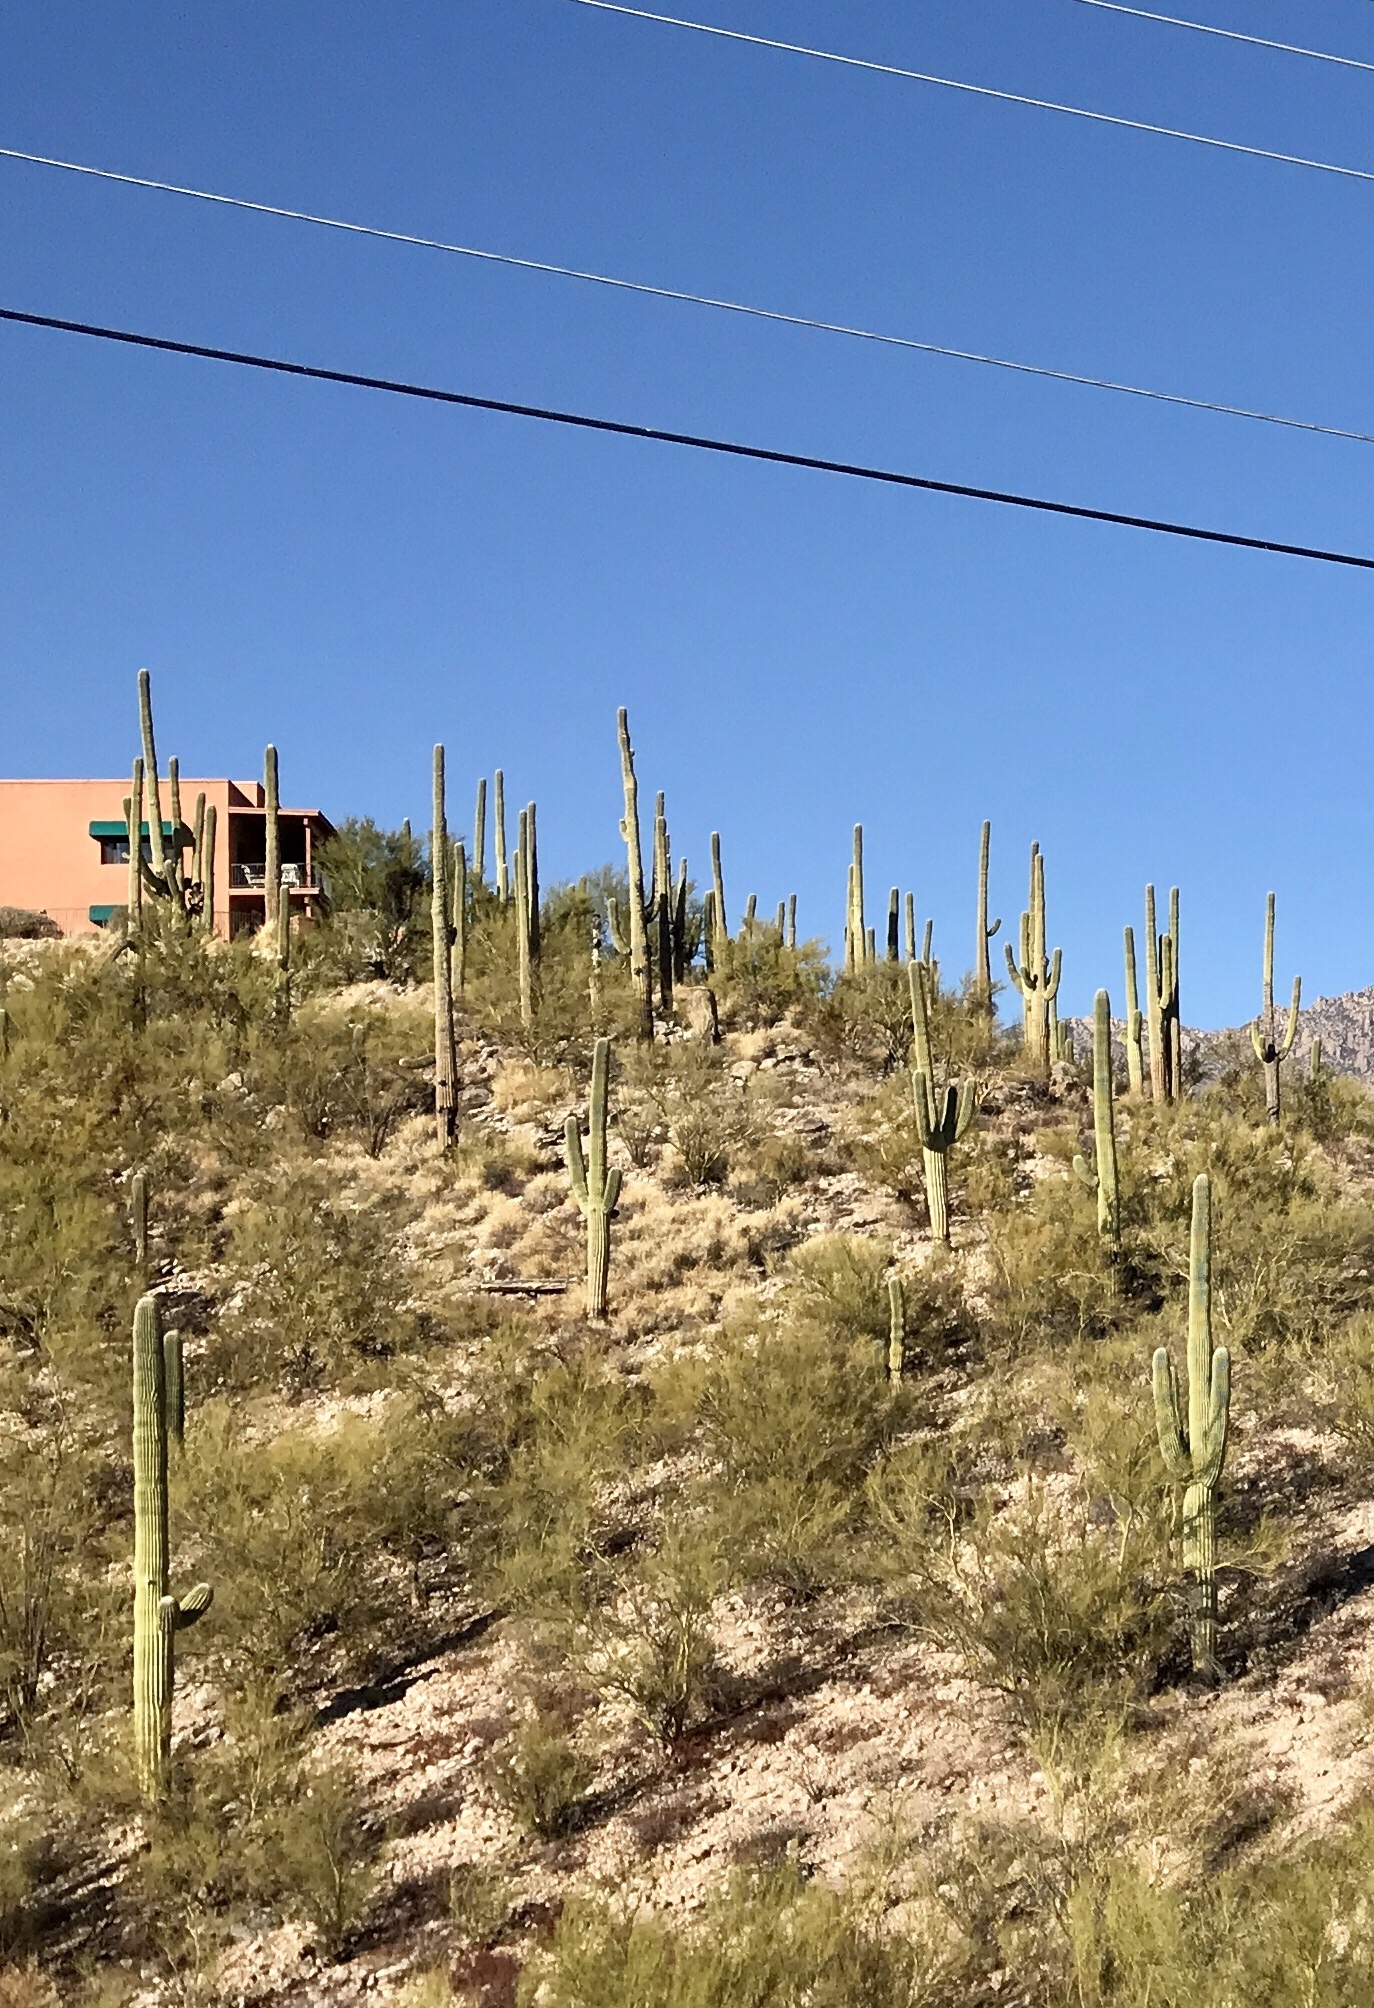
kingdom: Plantae
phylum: Tracheophyta
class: Magnoliopsida
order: Caryophyllales
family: Cactaceae
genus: Carnegiea
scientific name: Carnegiea gigantea
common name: Saguaro
